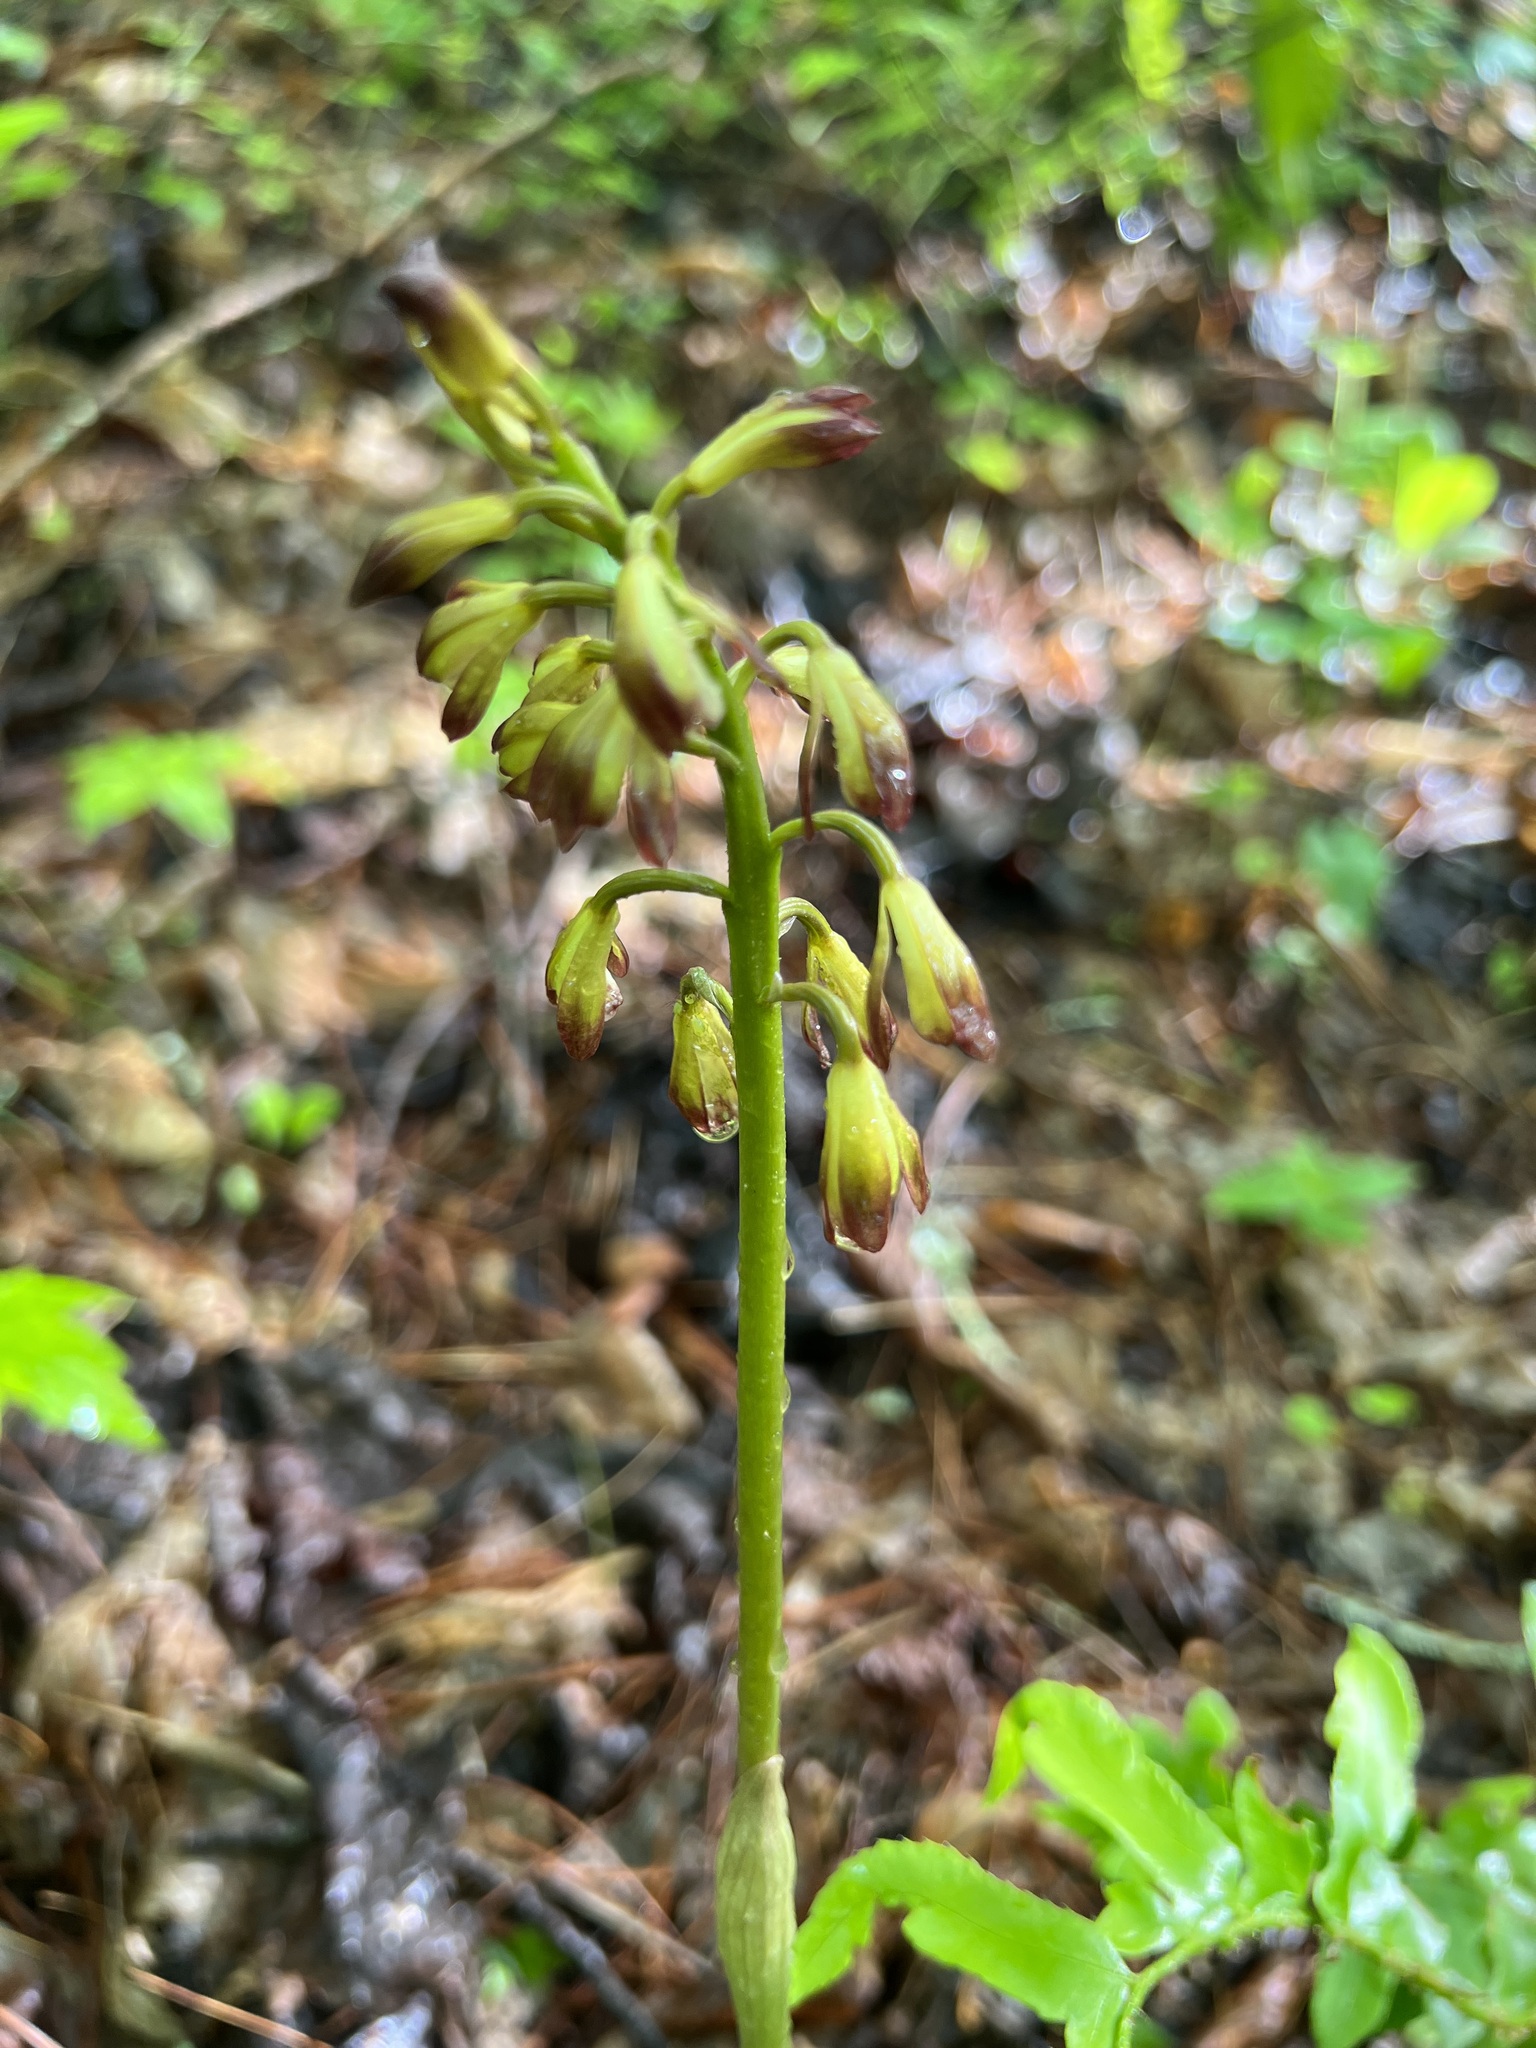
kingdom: Plantae
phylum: Tracheophyta
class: Liliopsida
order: Asparagales
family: Orchidaceae
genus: Aplectrum
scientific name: Aplectrum hyemale
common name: Adam-and-eve
